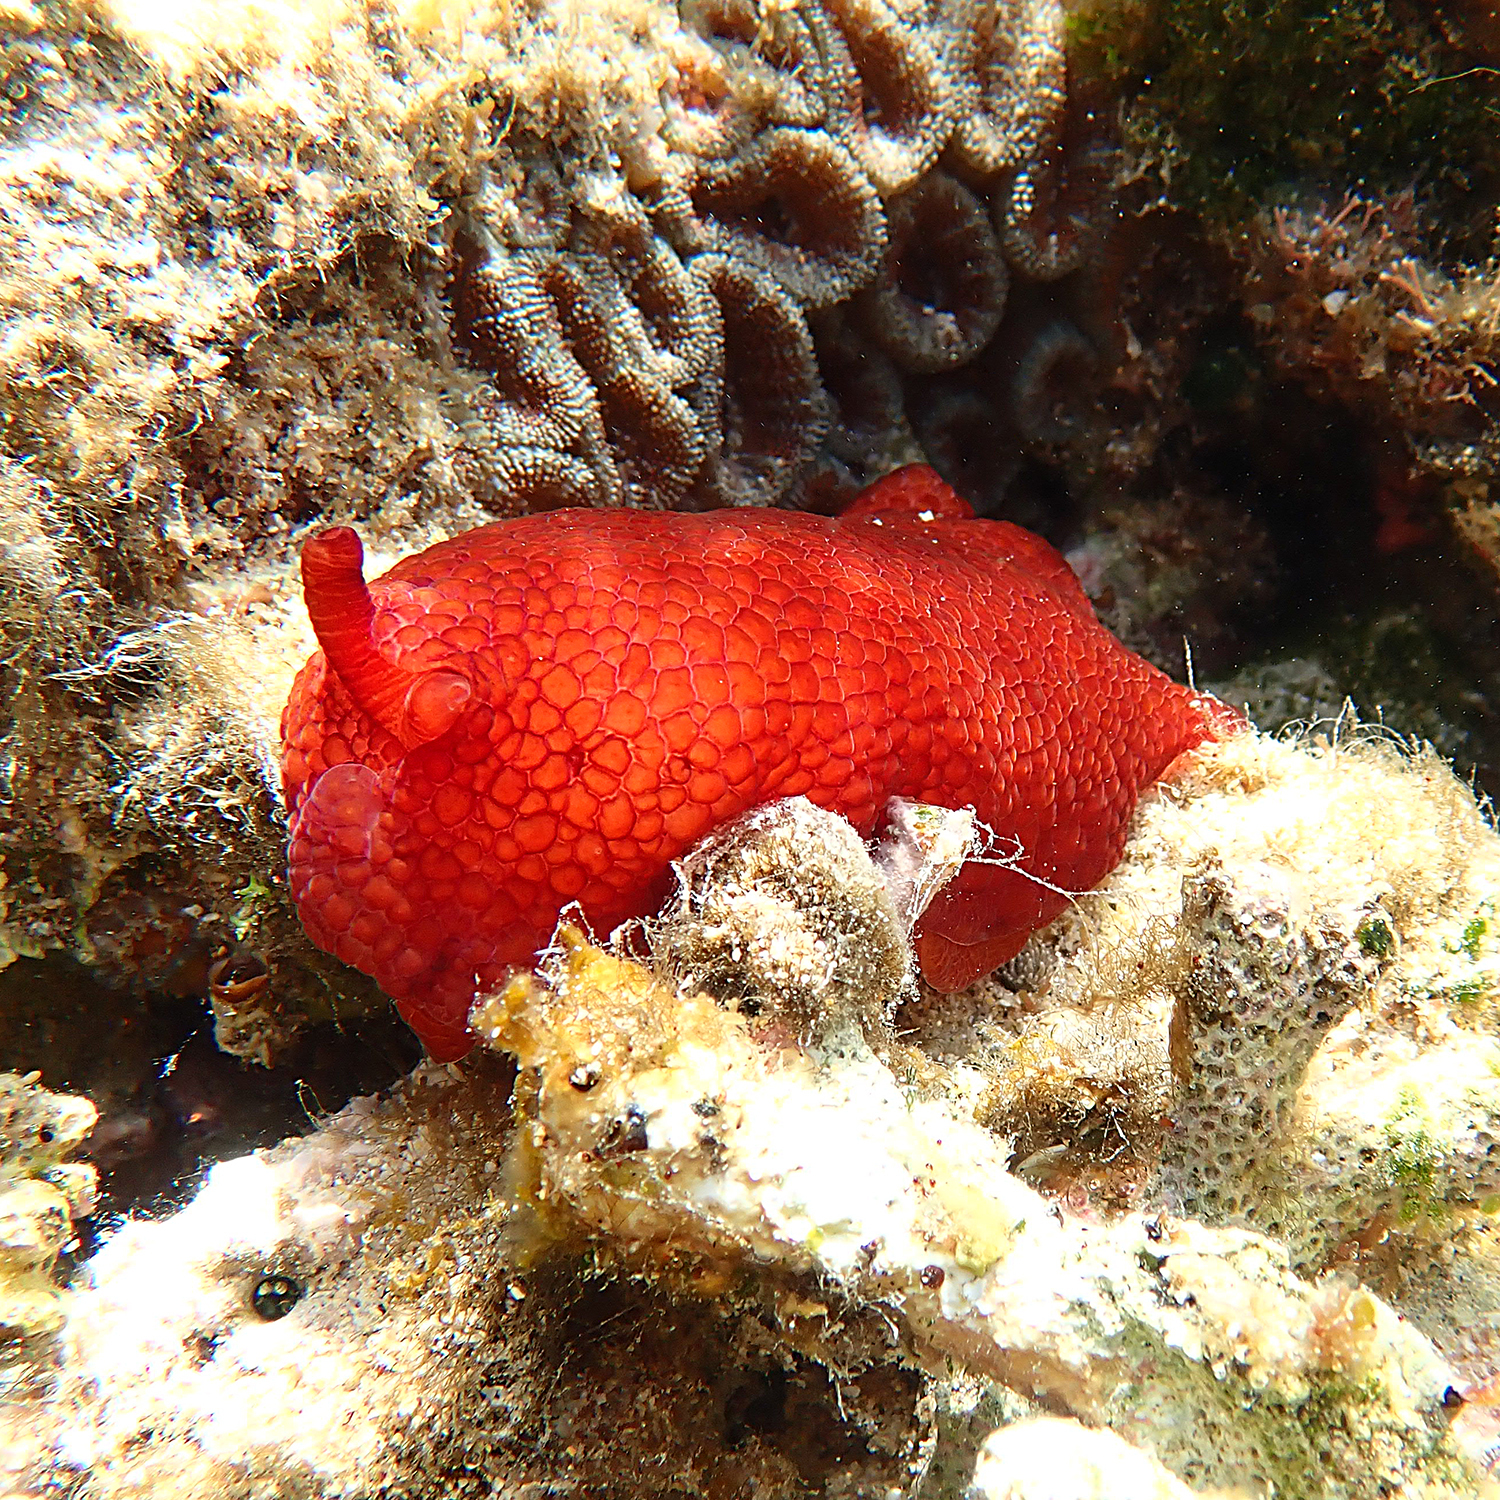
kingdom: Animalia
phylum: Mollusca
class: Gastropoda
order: Pleurobranchida
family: Pleurobranchidae
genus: Pleurobranchus
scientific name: Pleurobranchus peronii
